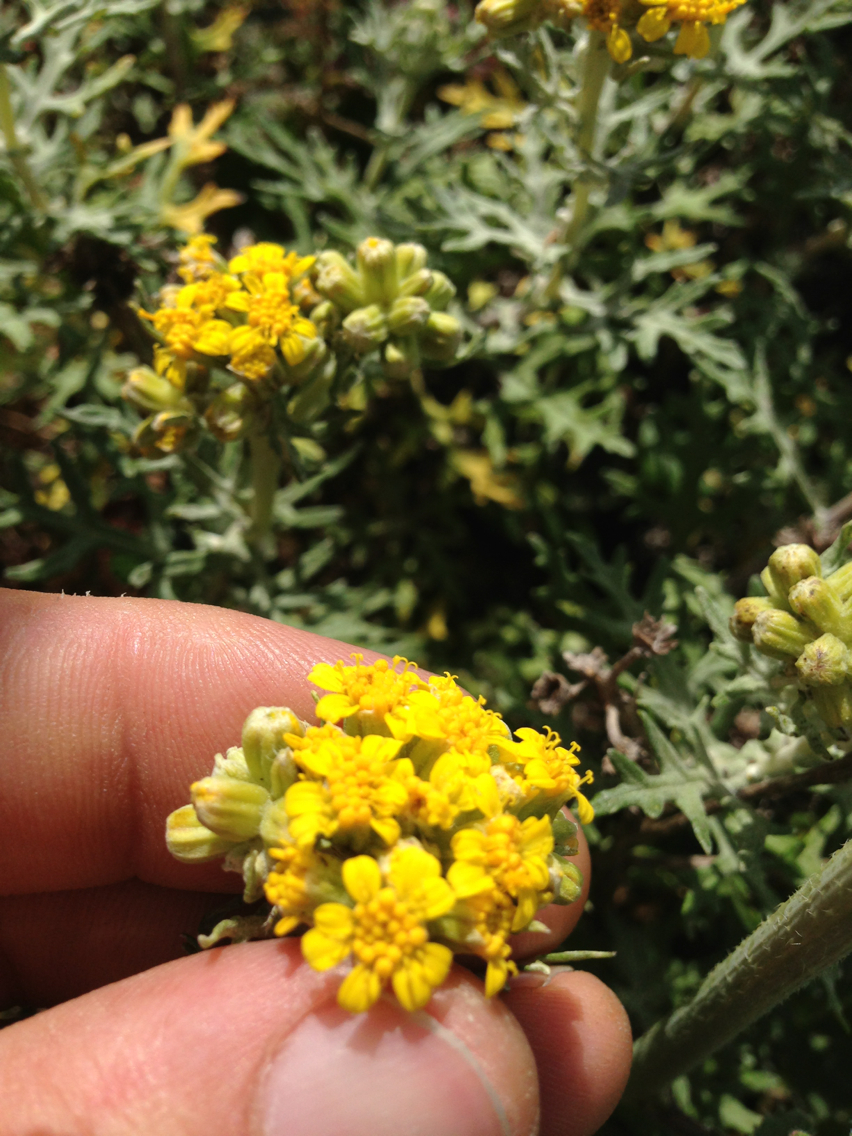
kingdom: Plantae
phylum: Tracheophyta
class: Magnoliopsida
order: Asterales
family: Asteraceae
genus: Eriophyllum
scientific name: Eriophyllum staechadifolium
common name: Lizardtail
